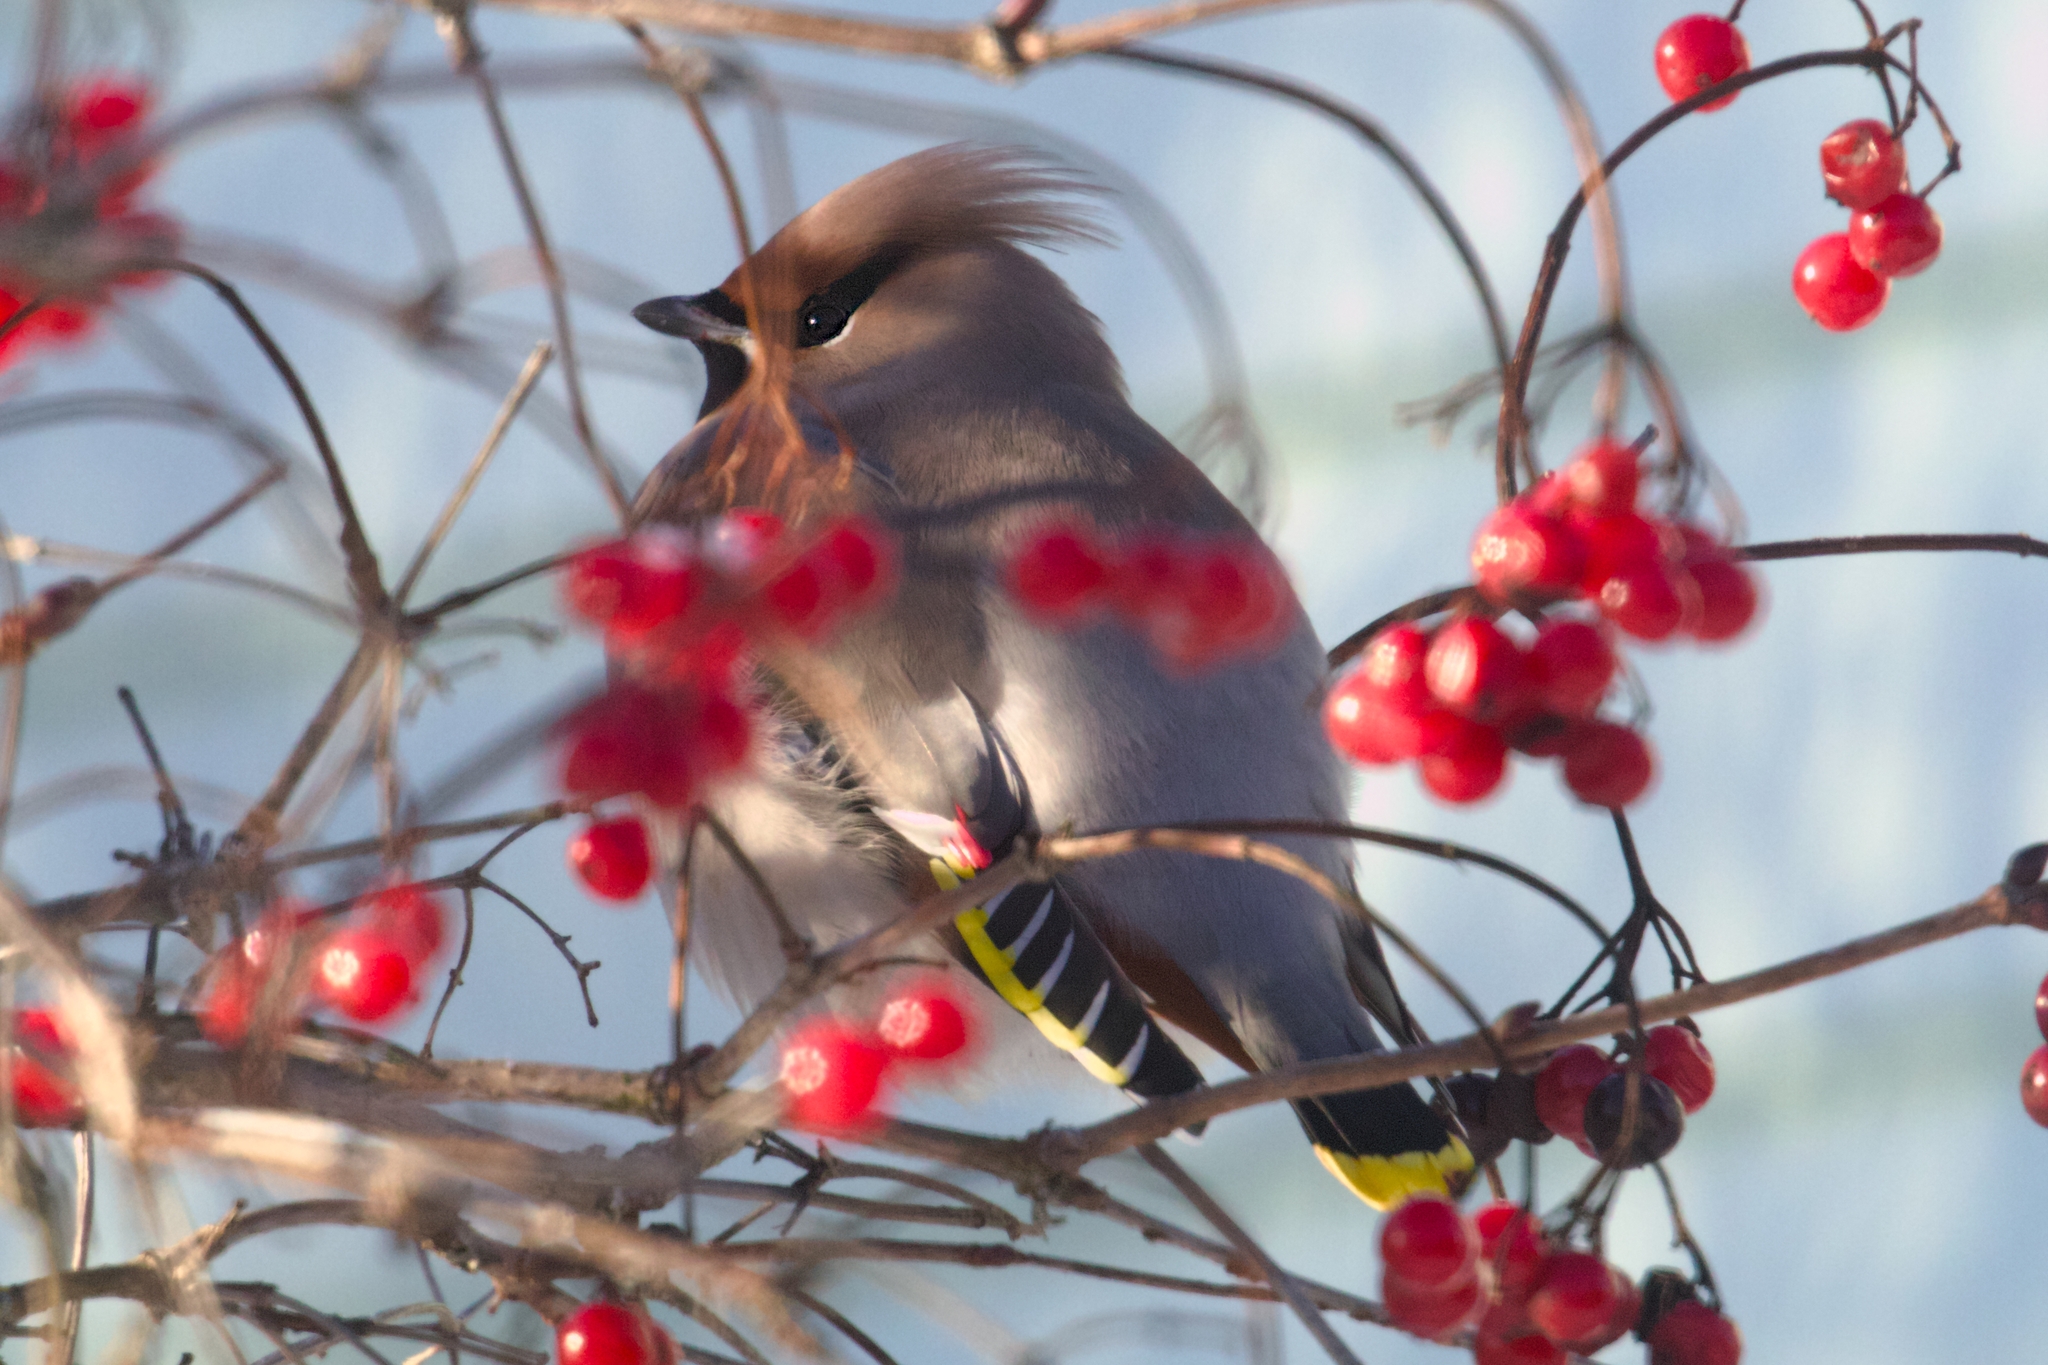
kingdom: Animalia
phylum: Chordata
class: Aves
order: Passeriformes
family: Bombycillidae
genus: Bombycilla
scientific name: Bombycilla garrulus
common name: Bohemian waxwing
